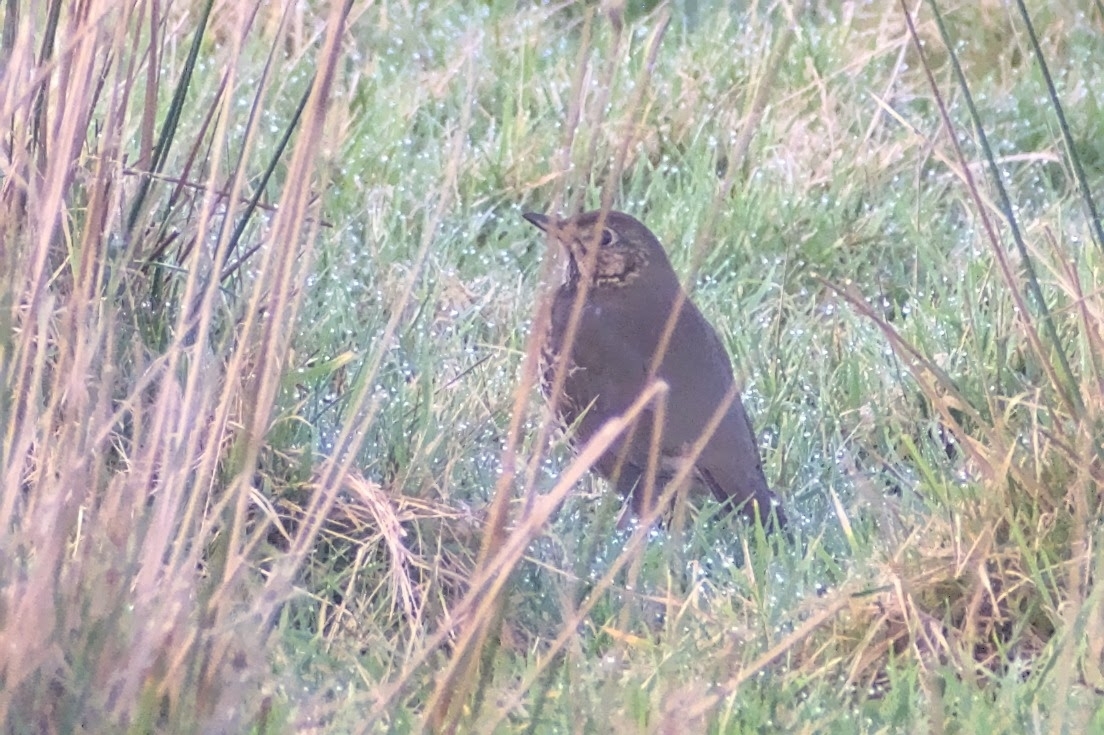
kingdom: Animalia
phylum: Chordata
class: Aves
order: Passeriformes
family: Turdidae
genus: Turdus
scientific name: Turdus philomelos
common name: Song thrush
